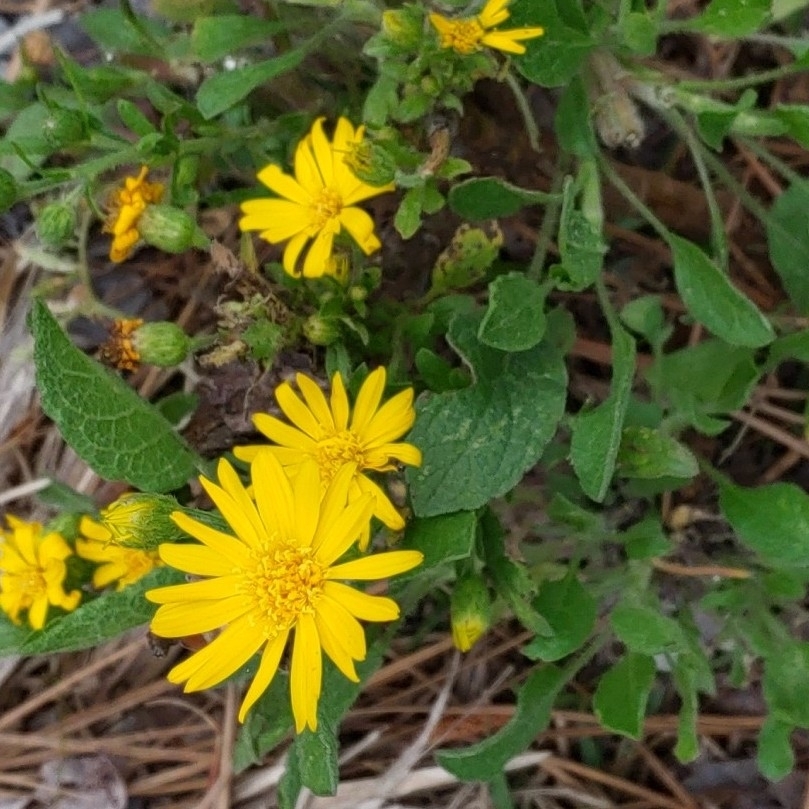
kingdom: Plantae
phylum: Tracheophyta
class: Magnoliopsida
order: Asterales
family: Asteraceae
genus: Heterotheca
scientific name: Heterotheca subaxillaris
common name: Camphorweed
